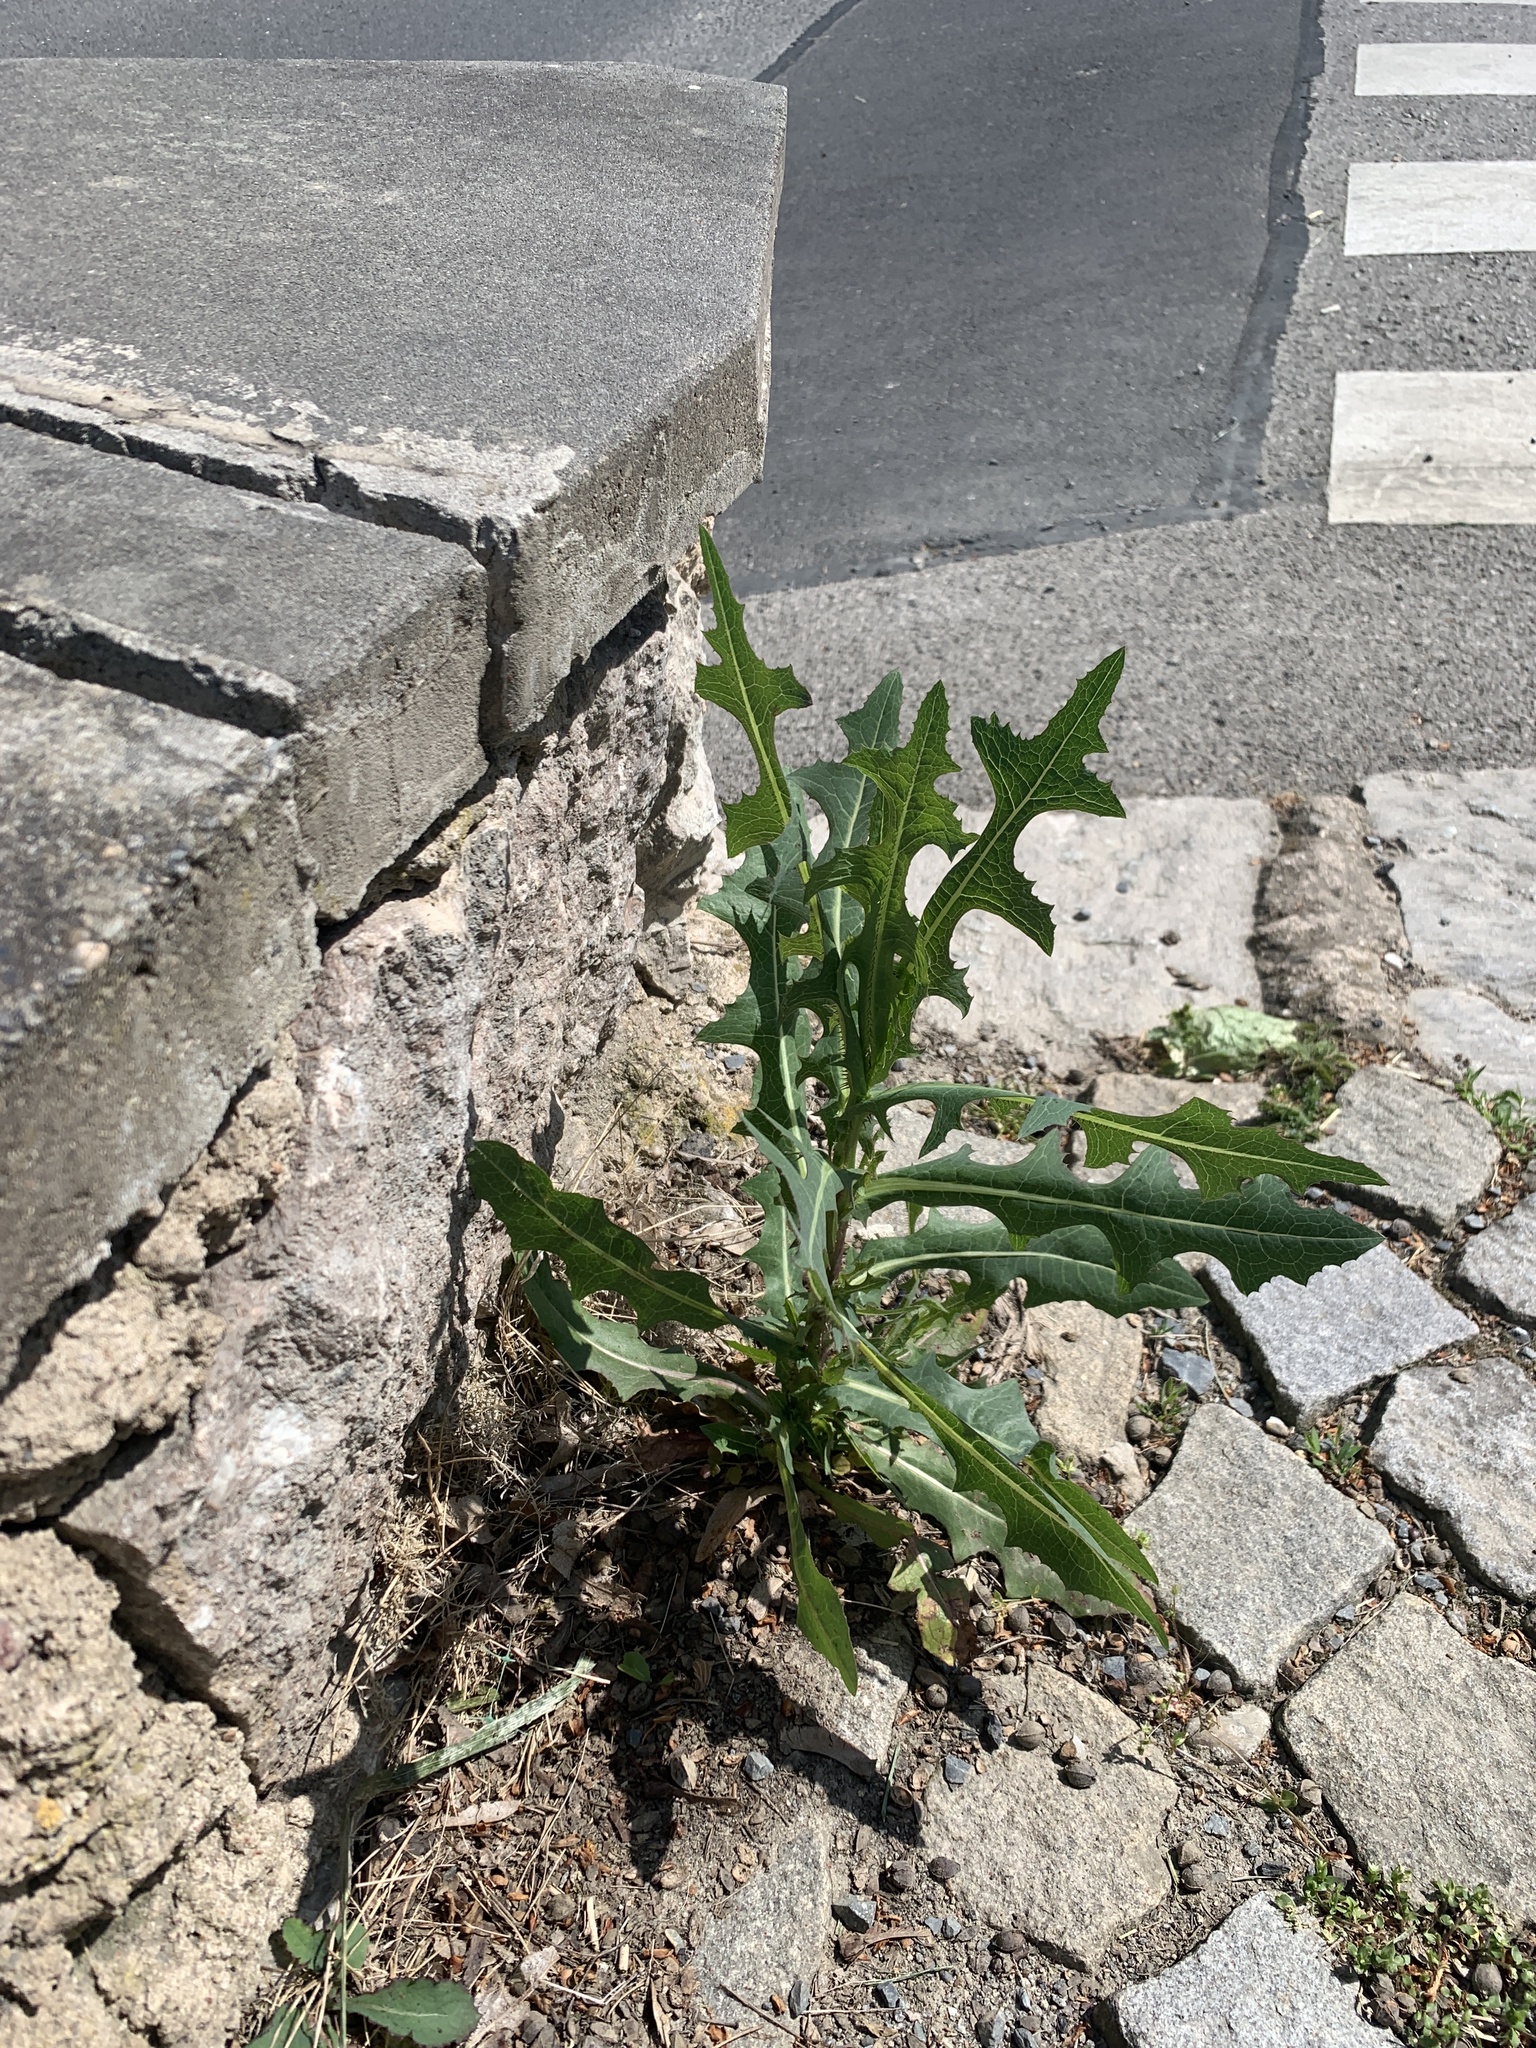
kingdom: Plantae
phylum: Tracheophyta
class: Magnoliopsida
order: Asterales
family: Asteraceae
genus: Lactuca
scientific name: Lactuca serriola
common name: Prickly lettuce
